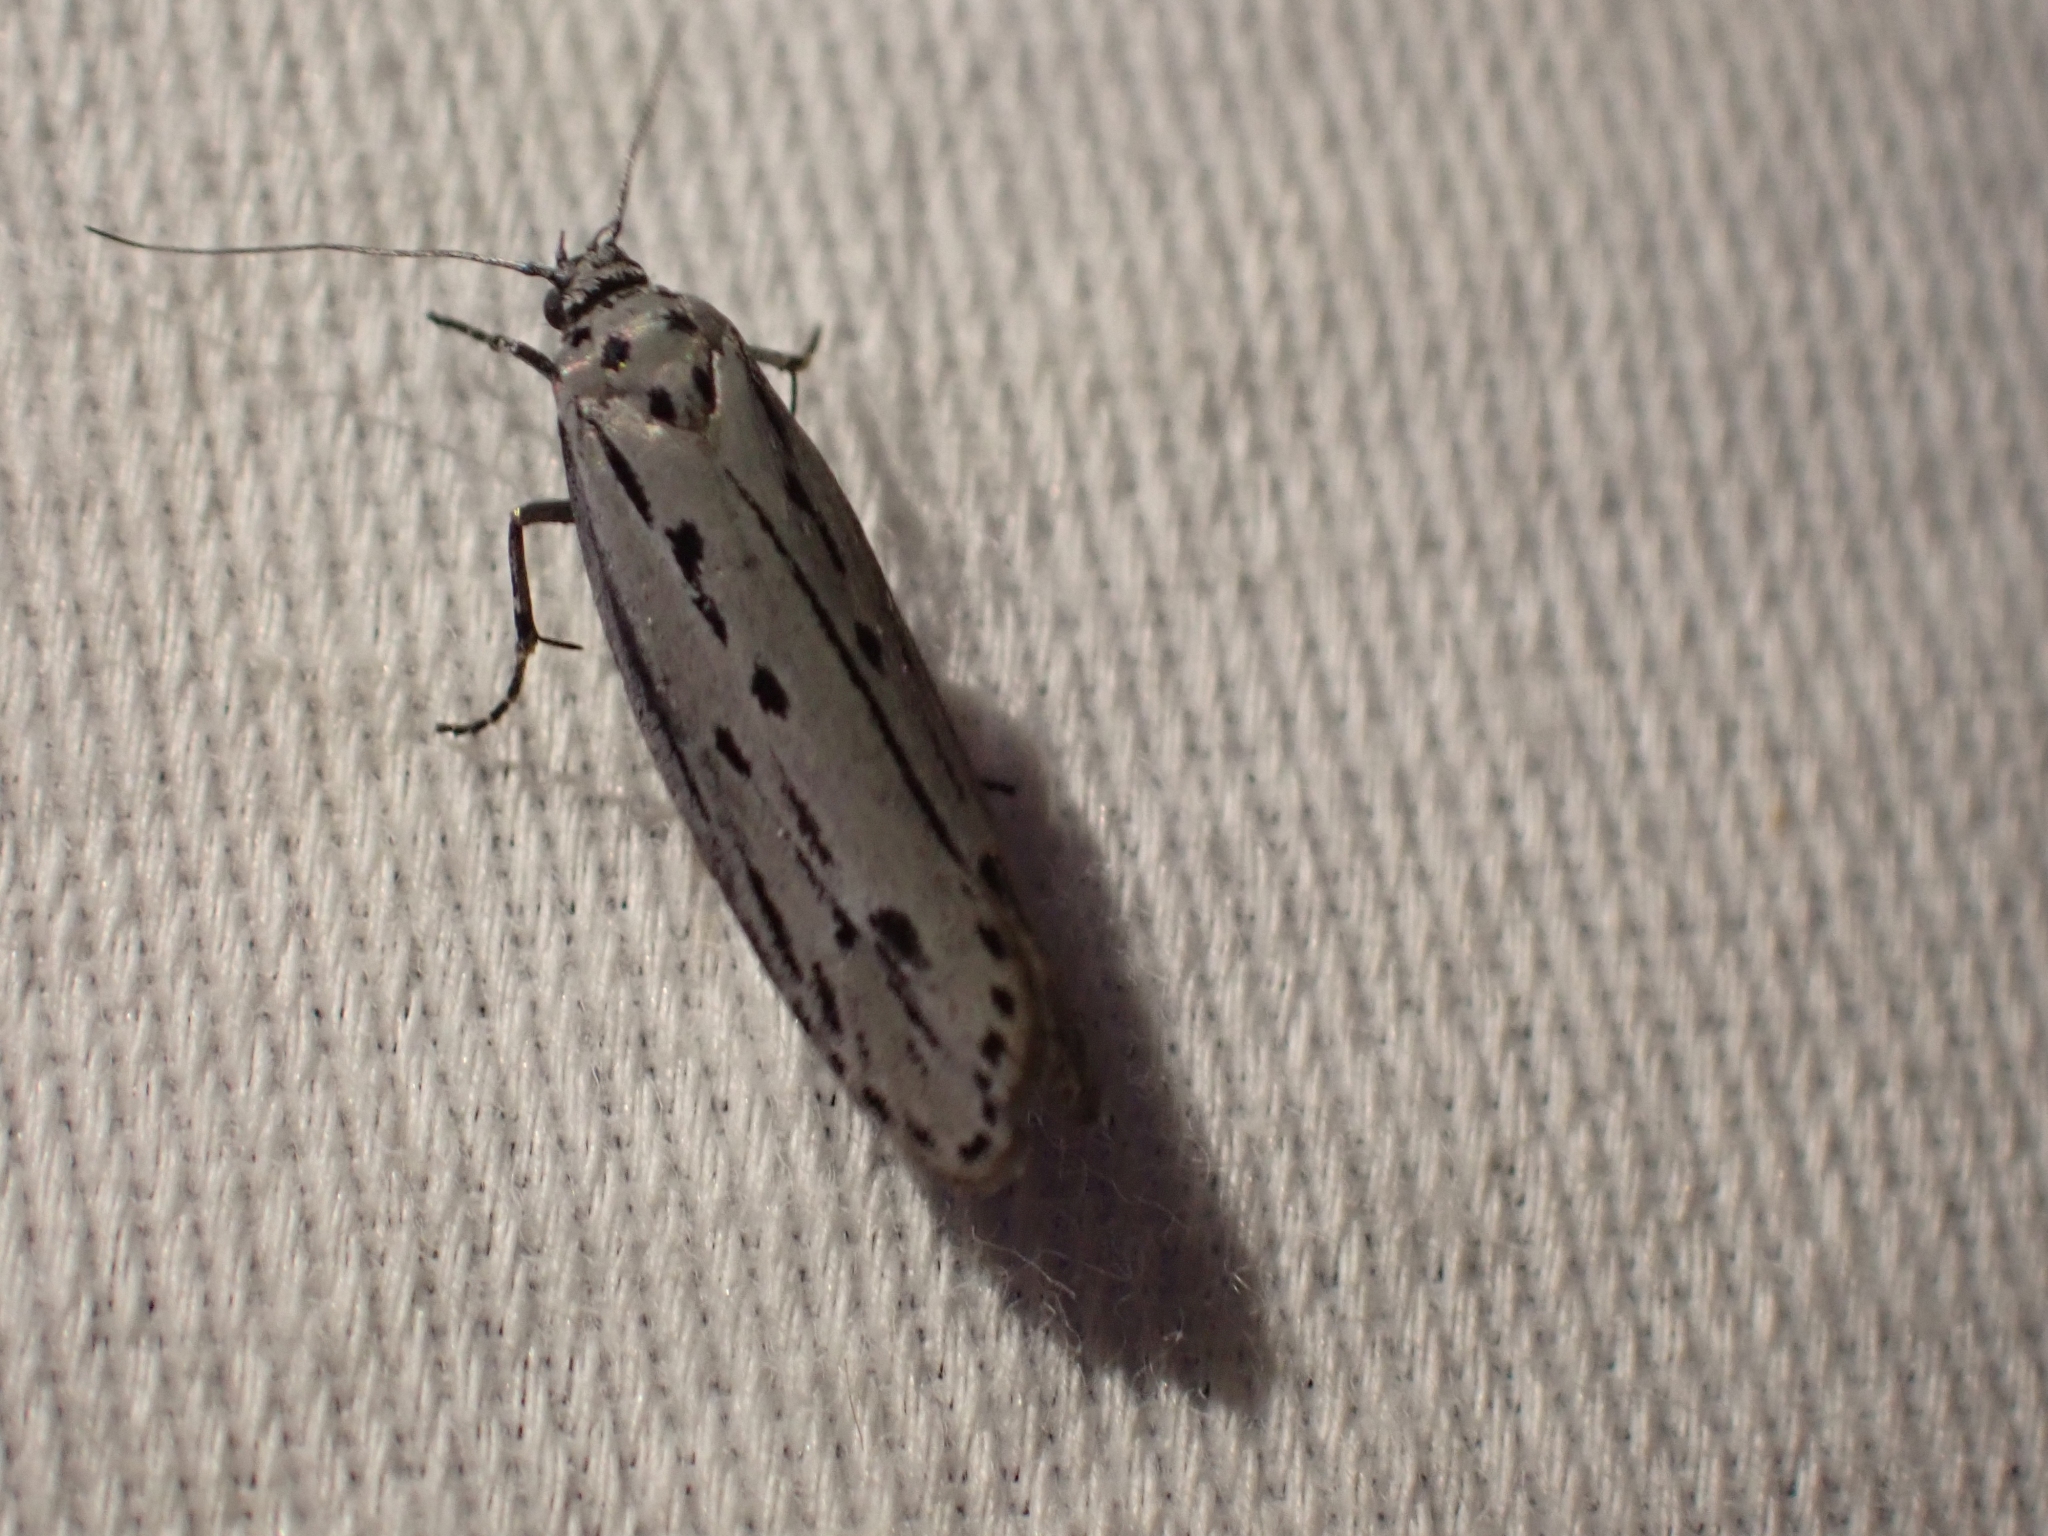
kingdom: Animalia
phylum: Arthropoda
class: Insecta
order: Lepidoptera
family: Ethmiidae
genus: Ethmia
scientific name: Ethmia monticola
